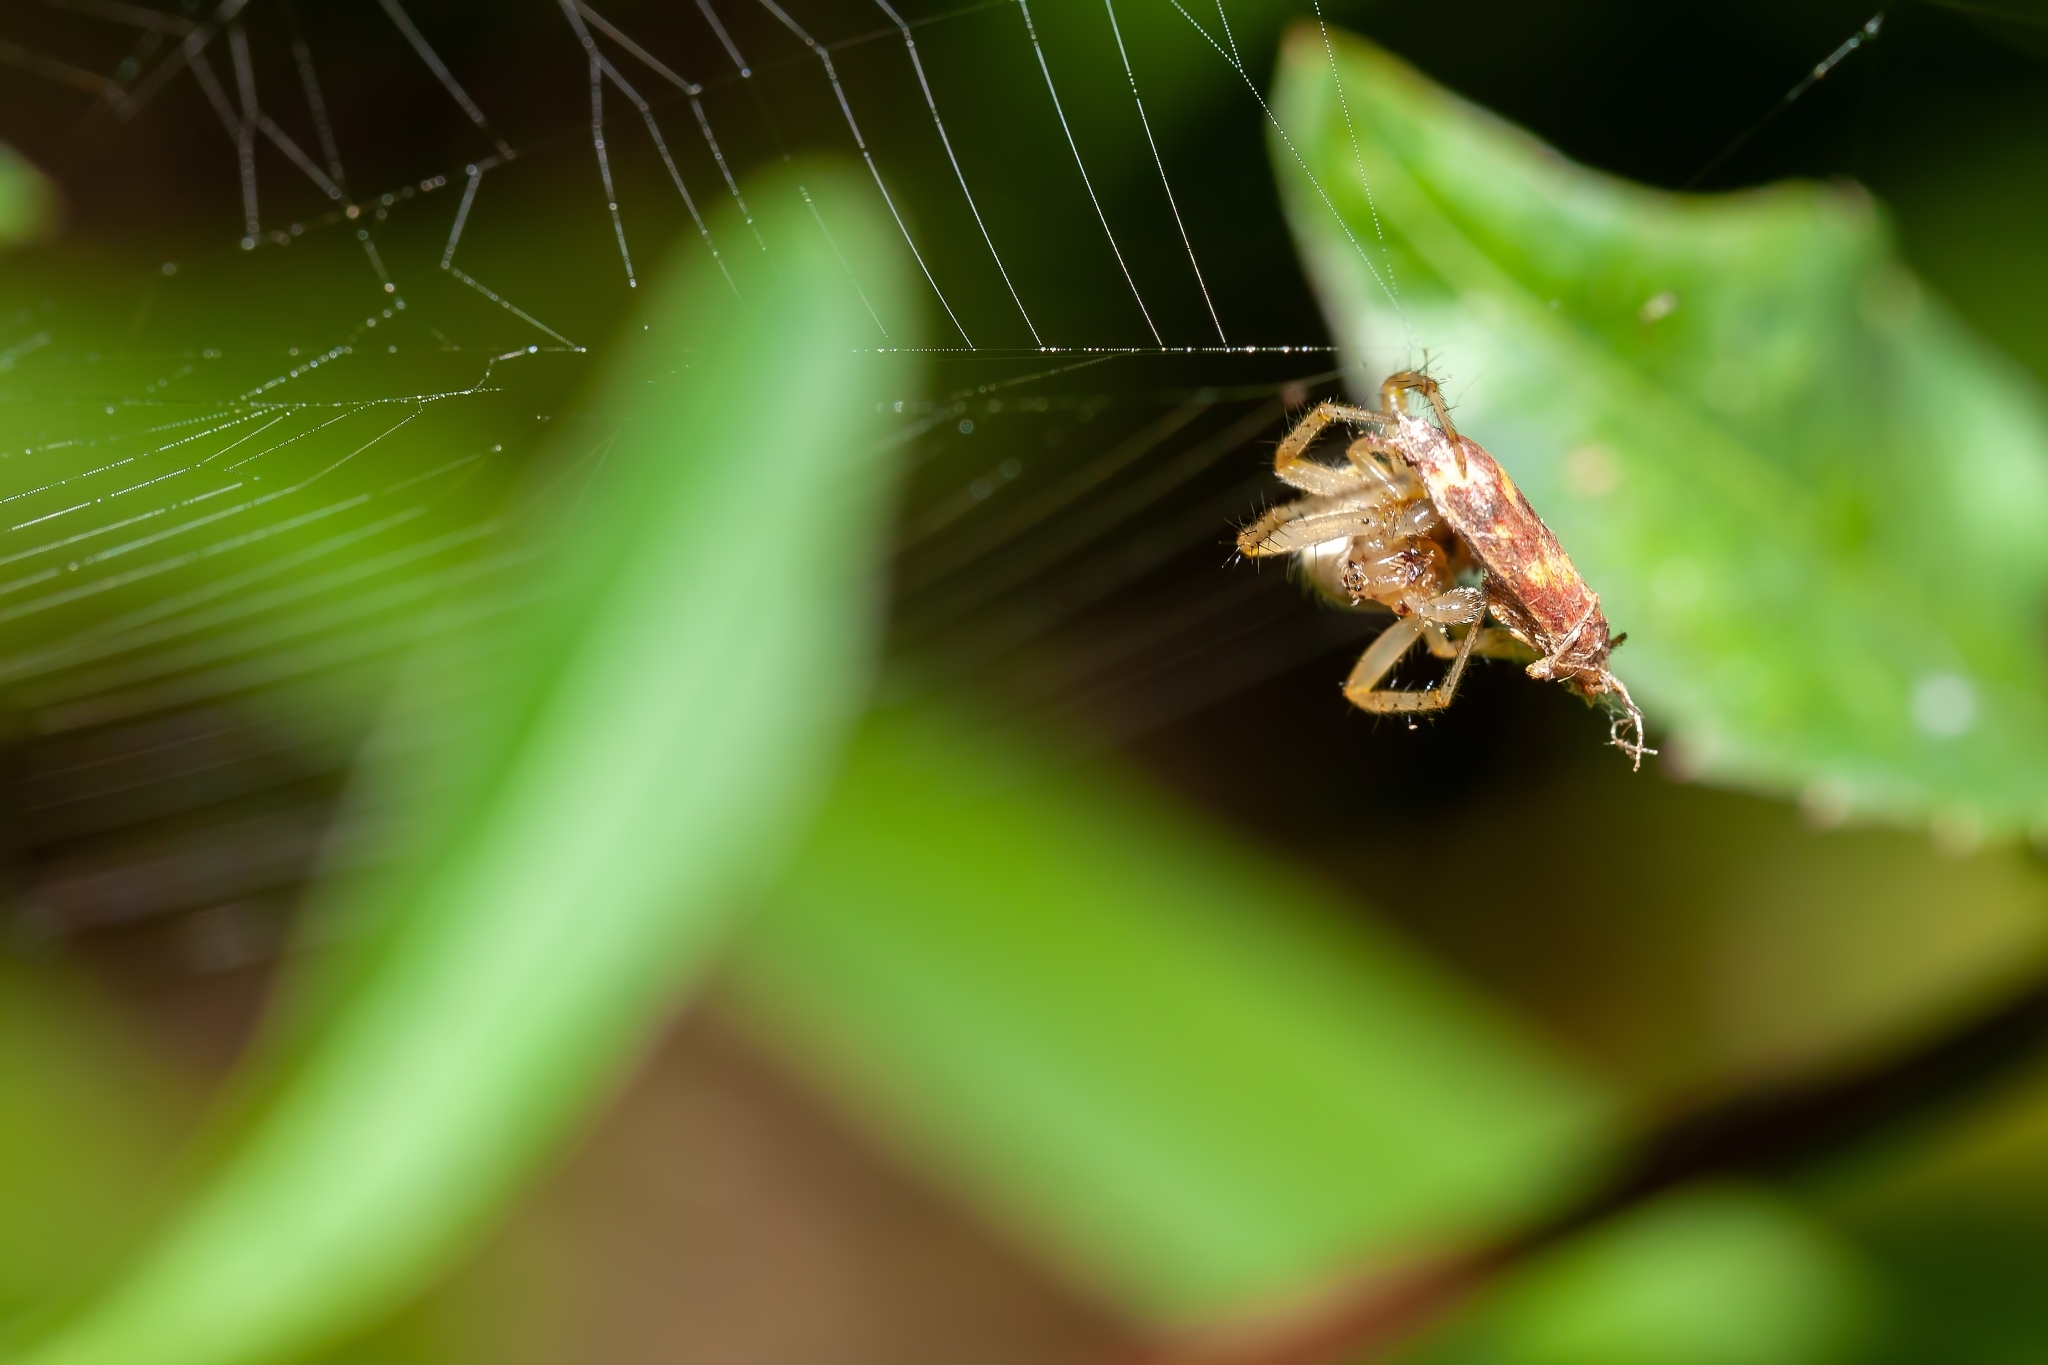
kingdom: Animalia
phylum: Arthropoda
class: Arachnida
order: Araneae
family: Araneidae
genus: Neoscona
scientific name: Neoscona arabesca
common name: Orb weavers
